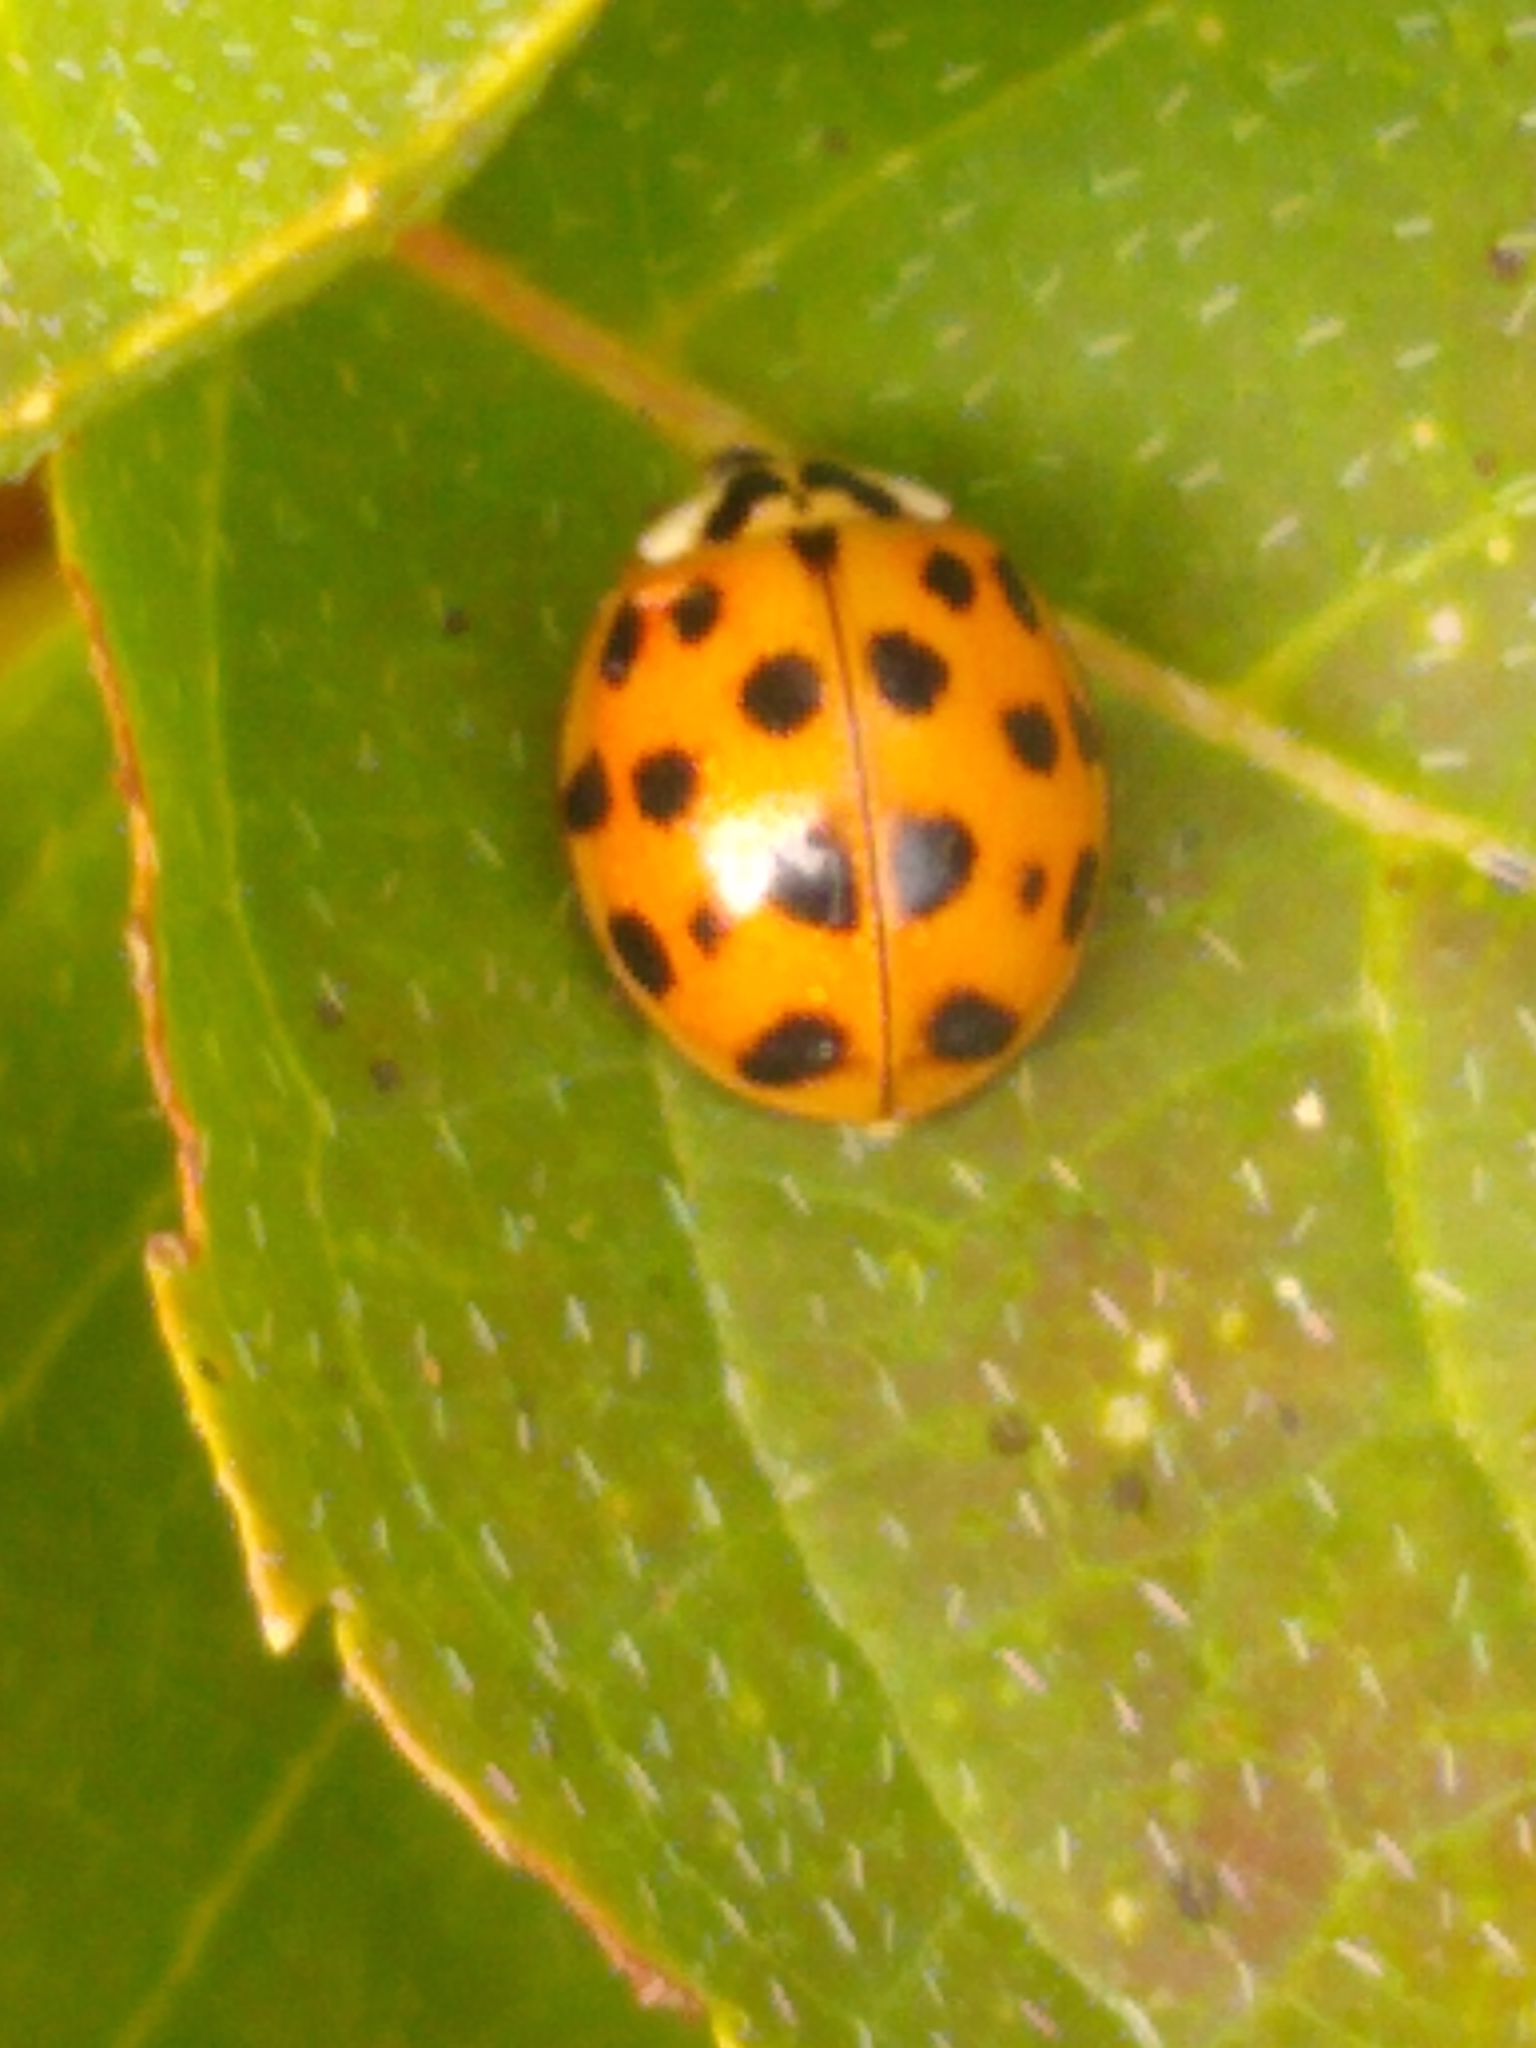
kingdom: Animalia
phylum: Arthropoda
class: Insecta
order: Coleoptera
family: Coccinellidae
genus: Harmonia
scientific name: Harmonia axyridis
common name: Harlequin ladybird
